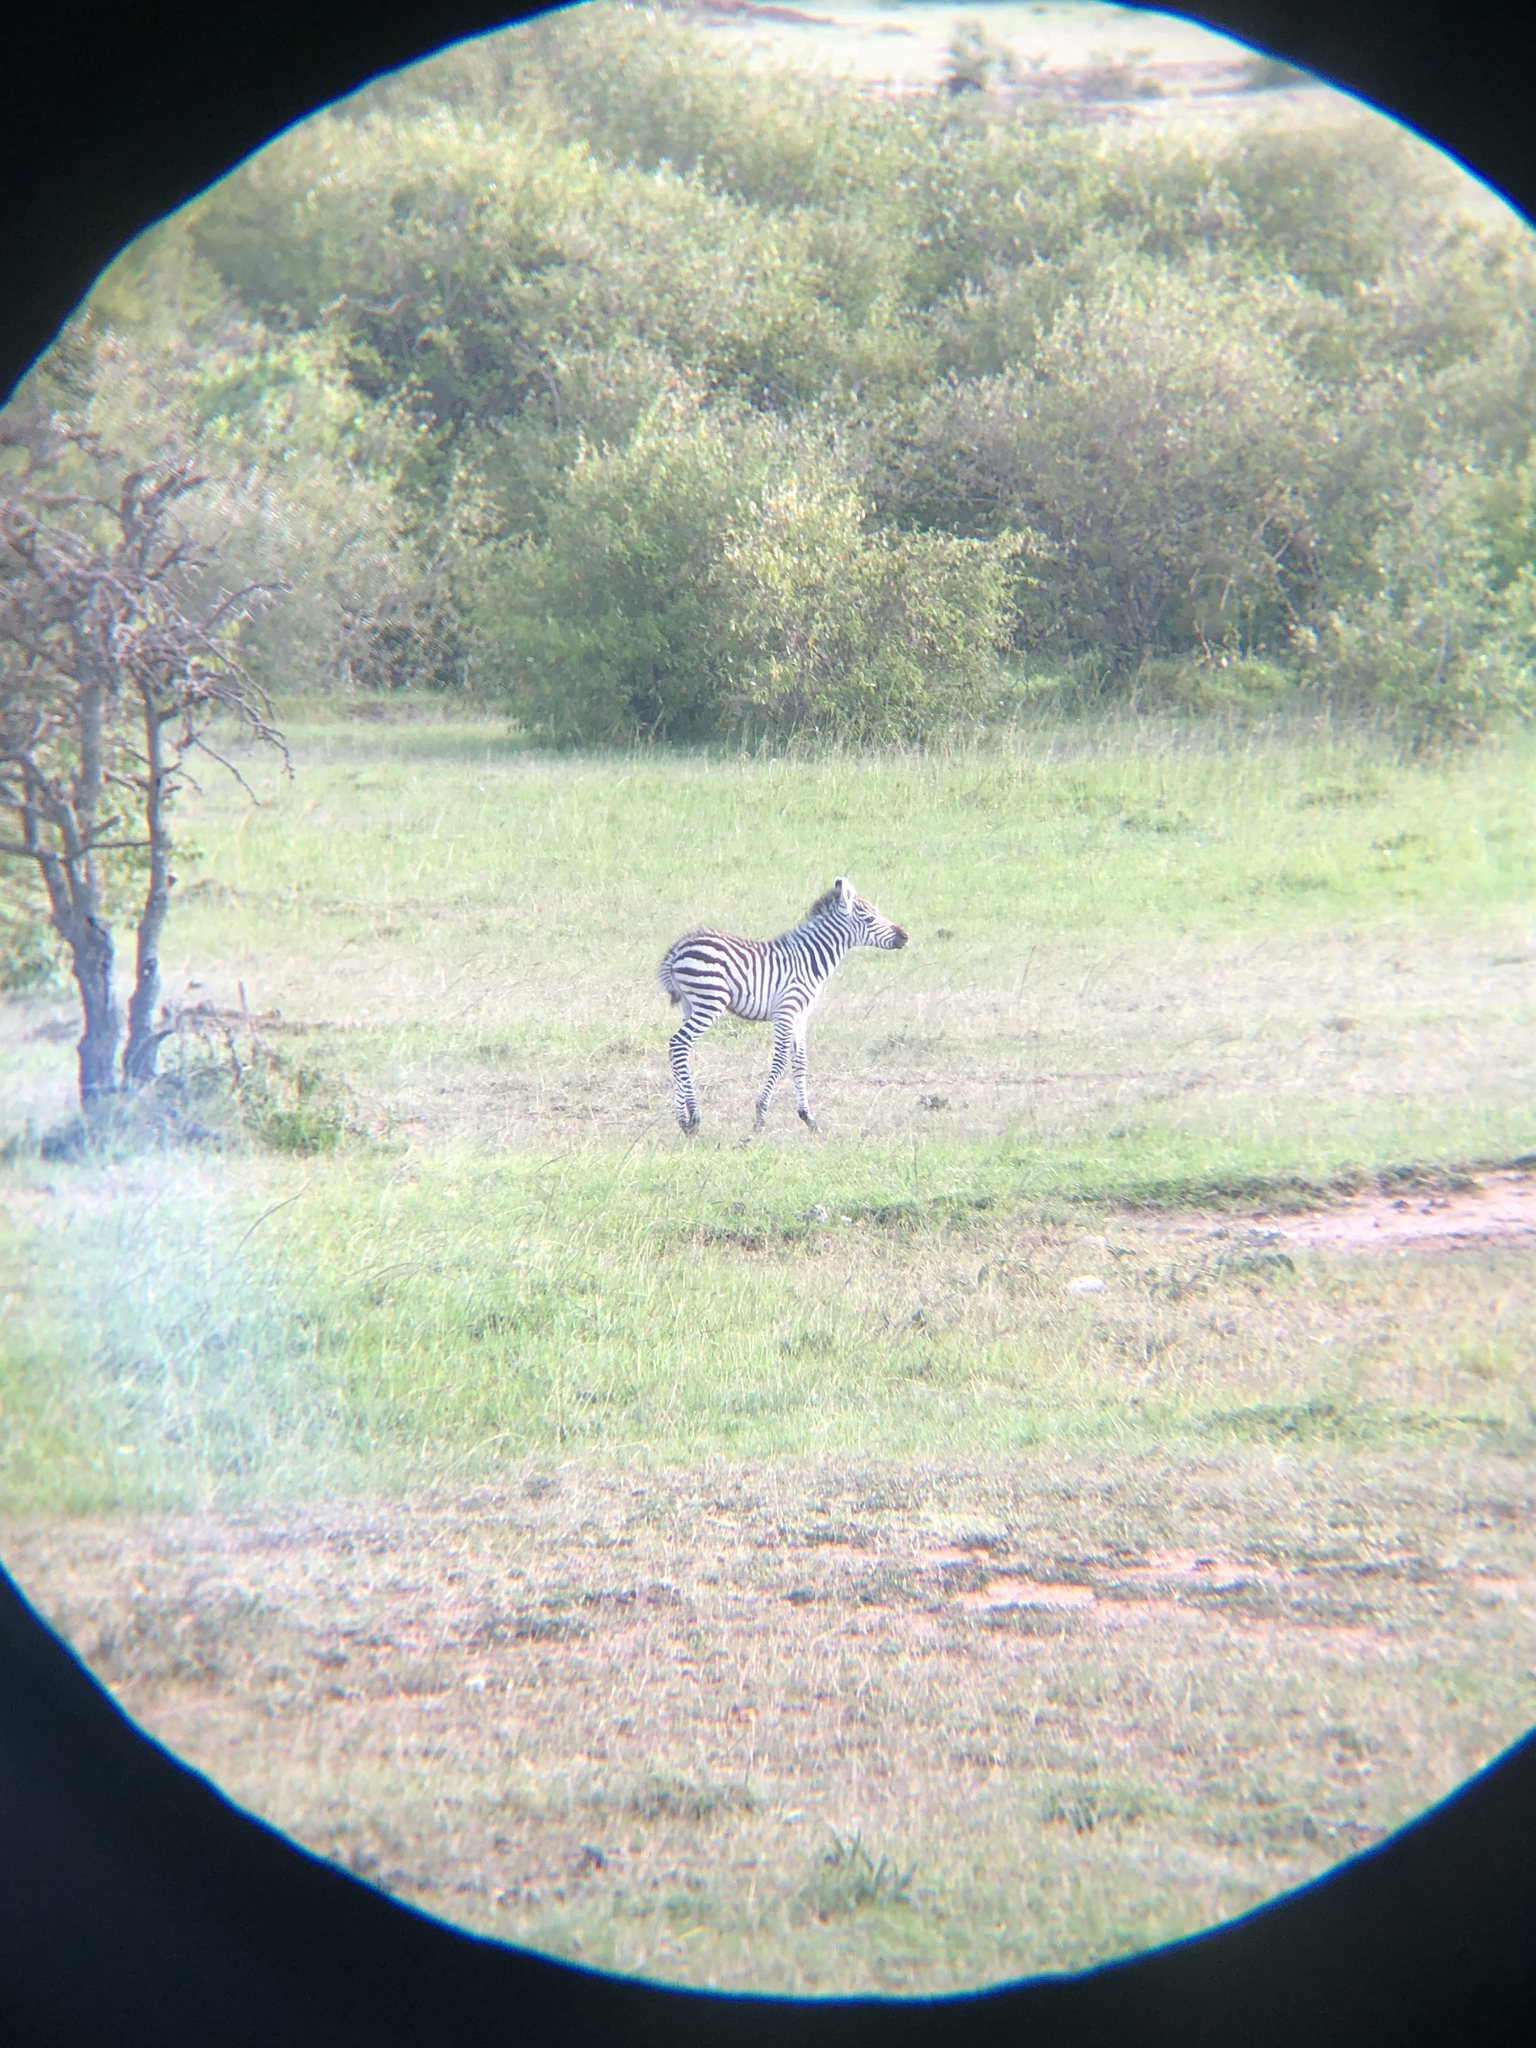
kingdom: Animalia
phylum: Chordata
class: Mammalia
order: Perissodactyla
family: Equidae
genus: Equus
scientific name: Equus quagga
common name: Plains zebra
